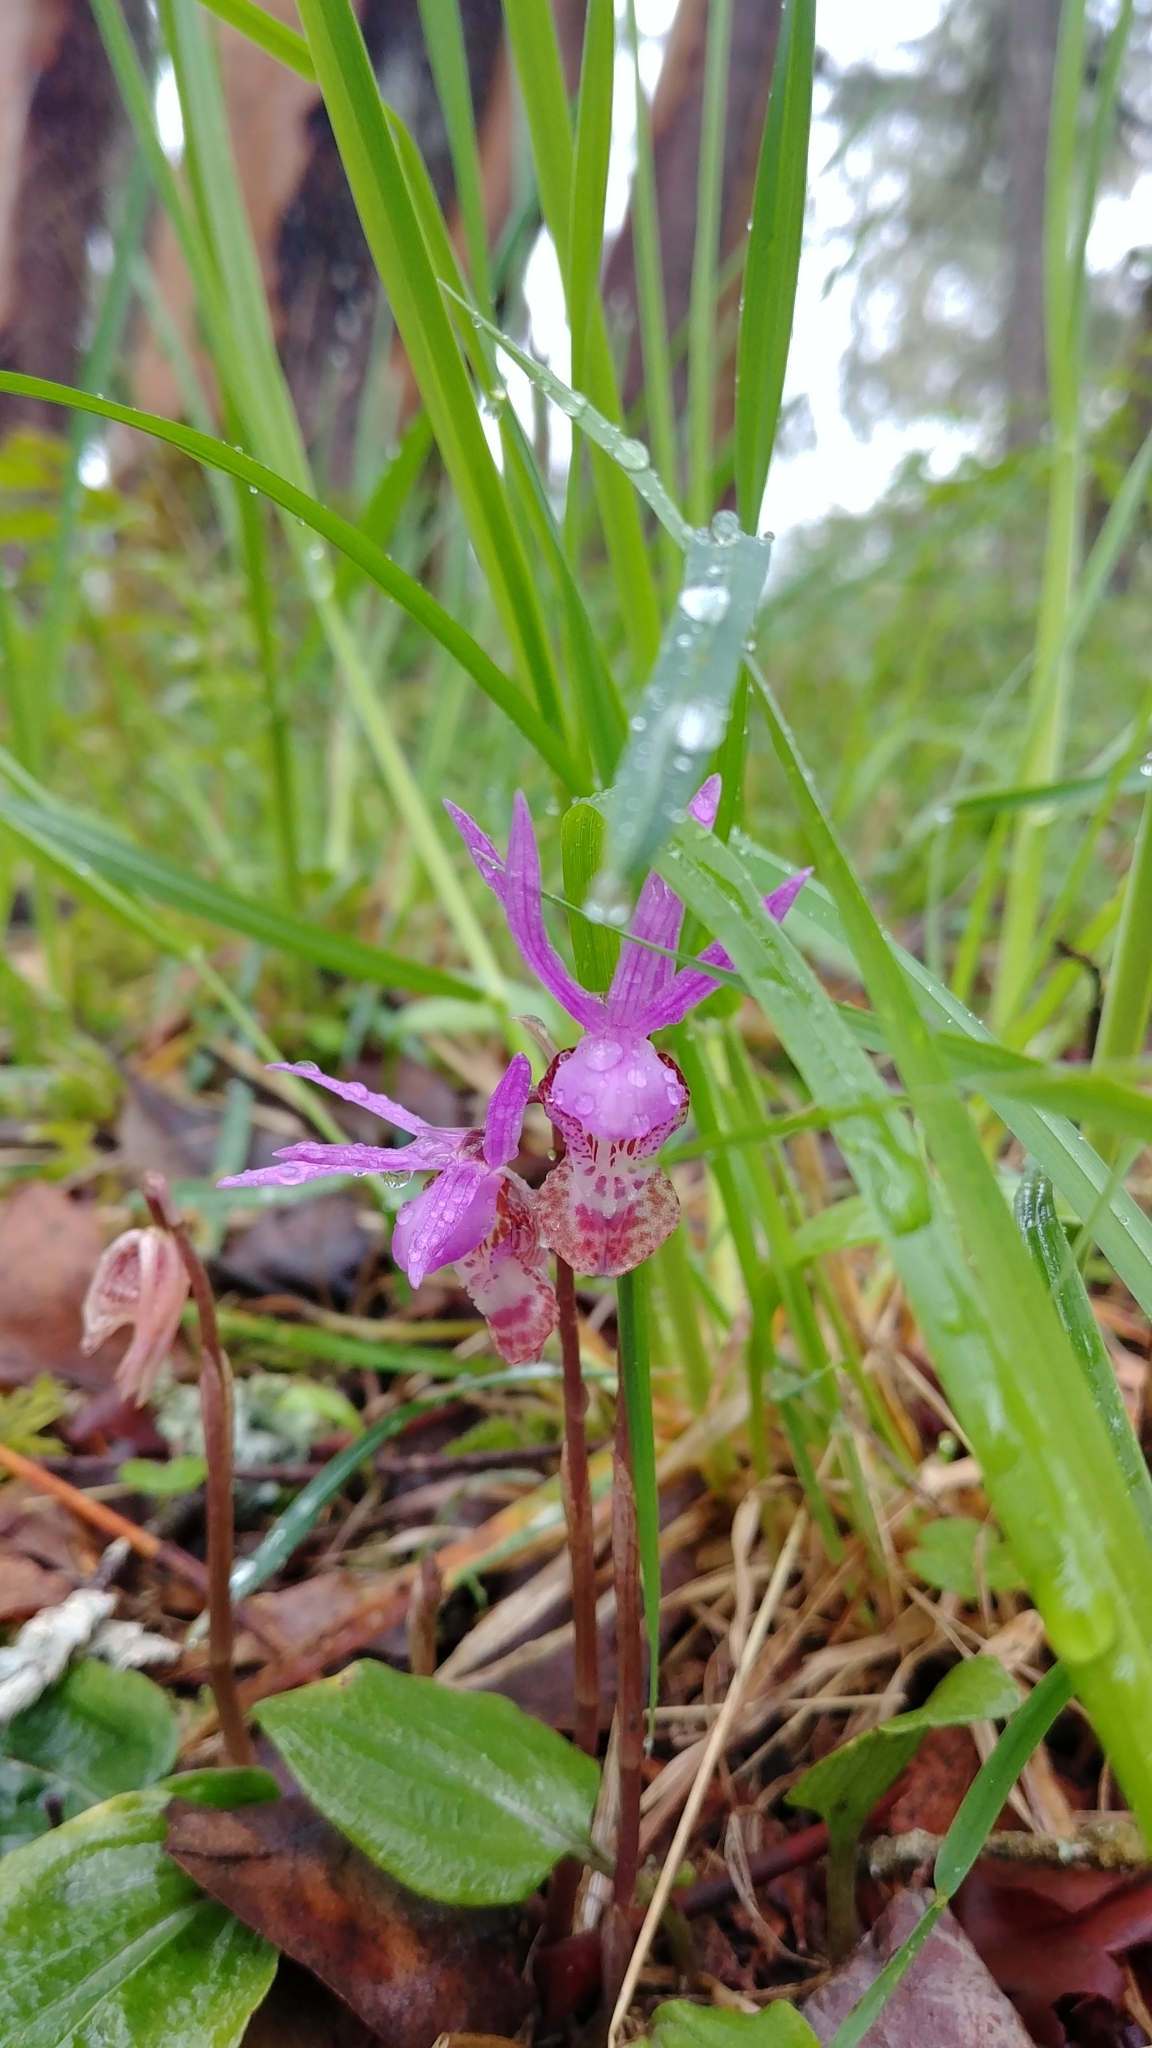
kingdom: Plantae
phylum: Tracheophyta
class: Liliopsida
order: Asparagales
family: Orchidaceae
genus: Calypso
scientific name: Calypso bulbosa
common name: Calypso
